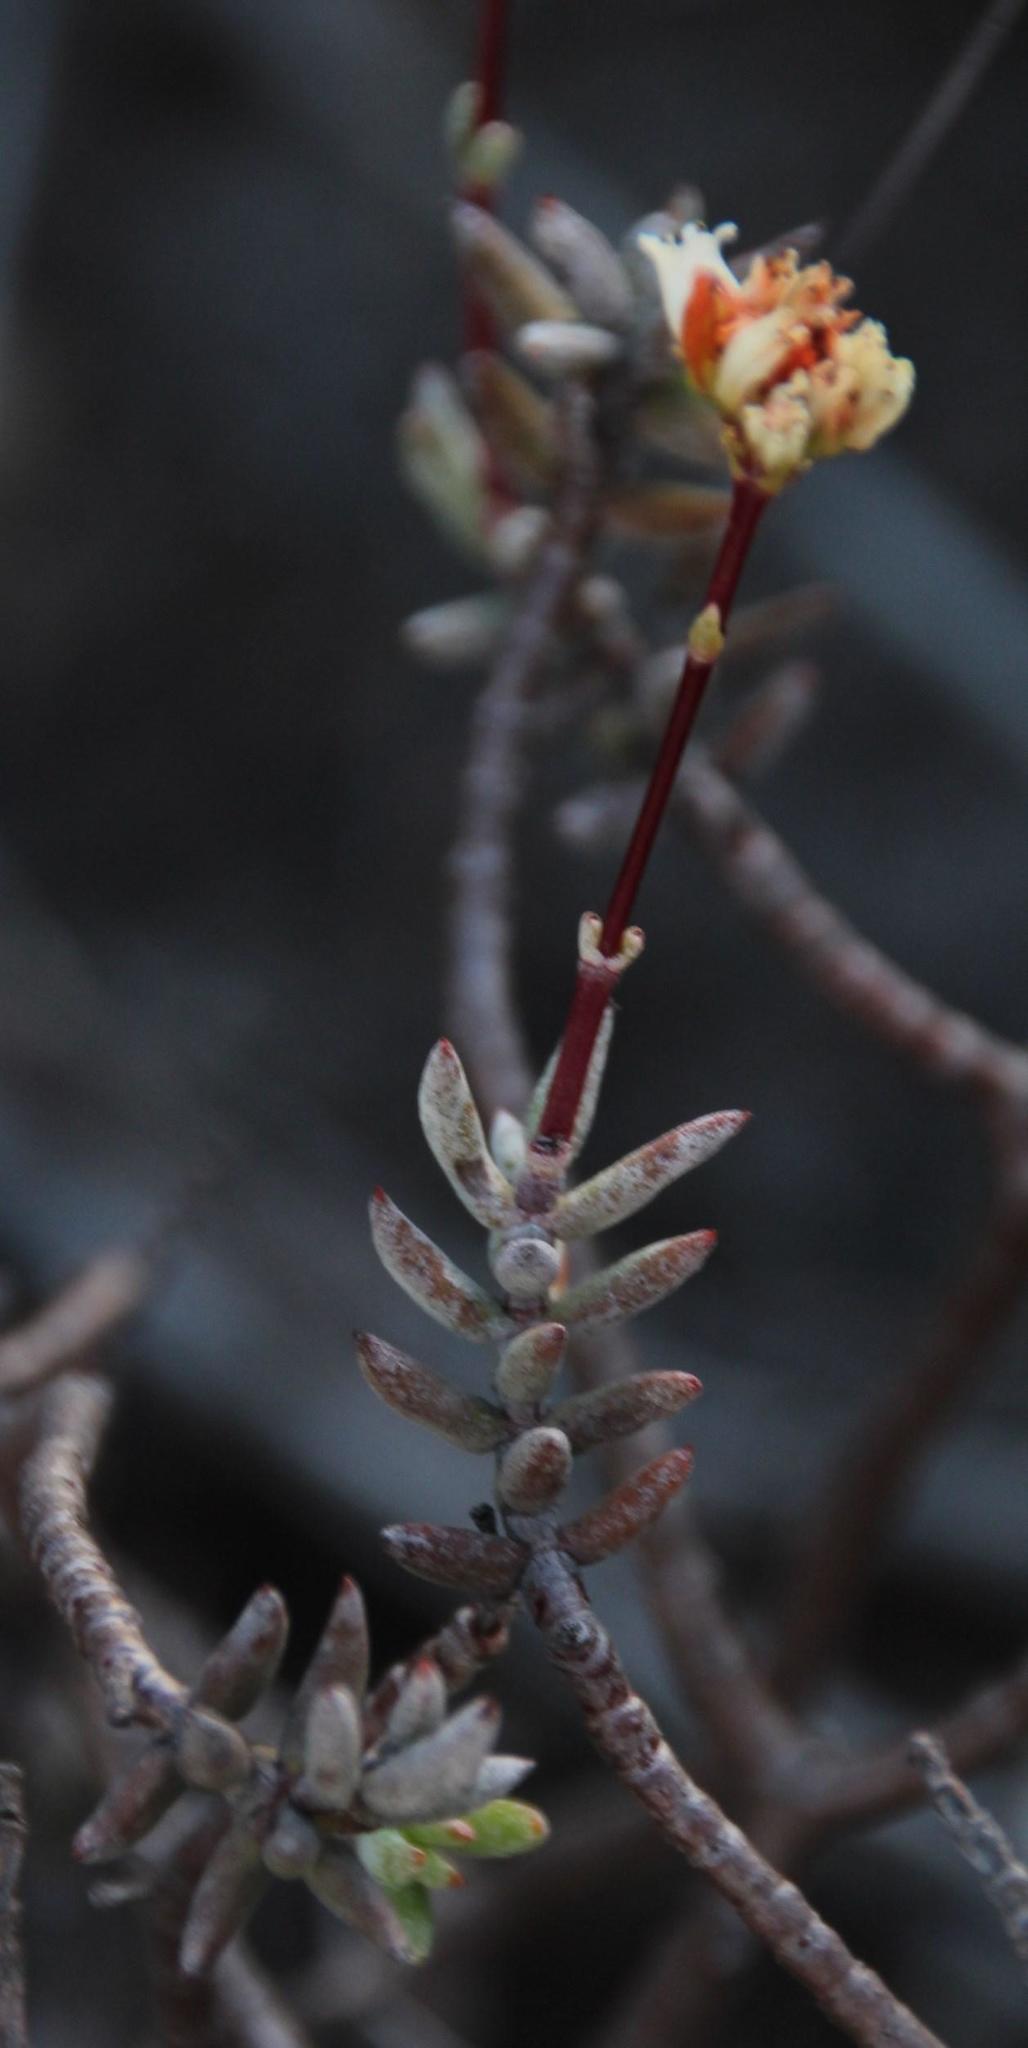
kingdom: Plantae
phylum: Tracheophyta
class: Magnoliopsida
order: Saxifragales
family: Crassulaceae
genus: Crassula
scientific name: Crassula biplanata
